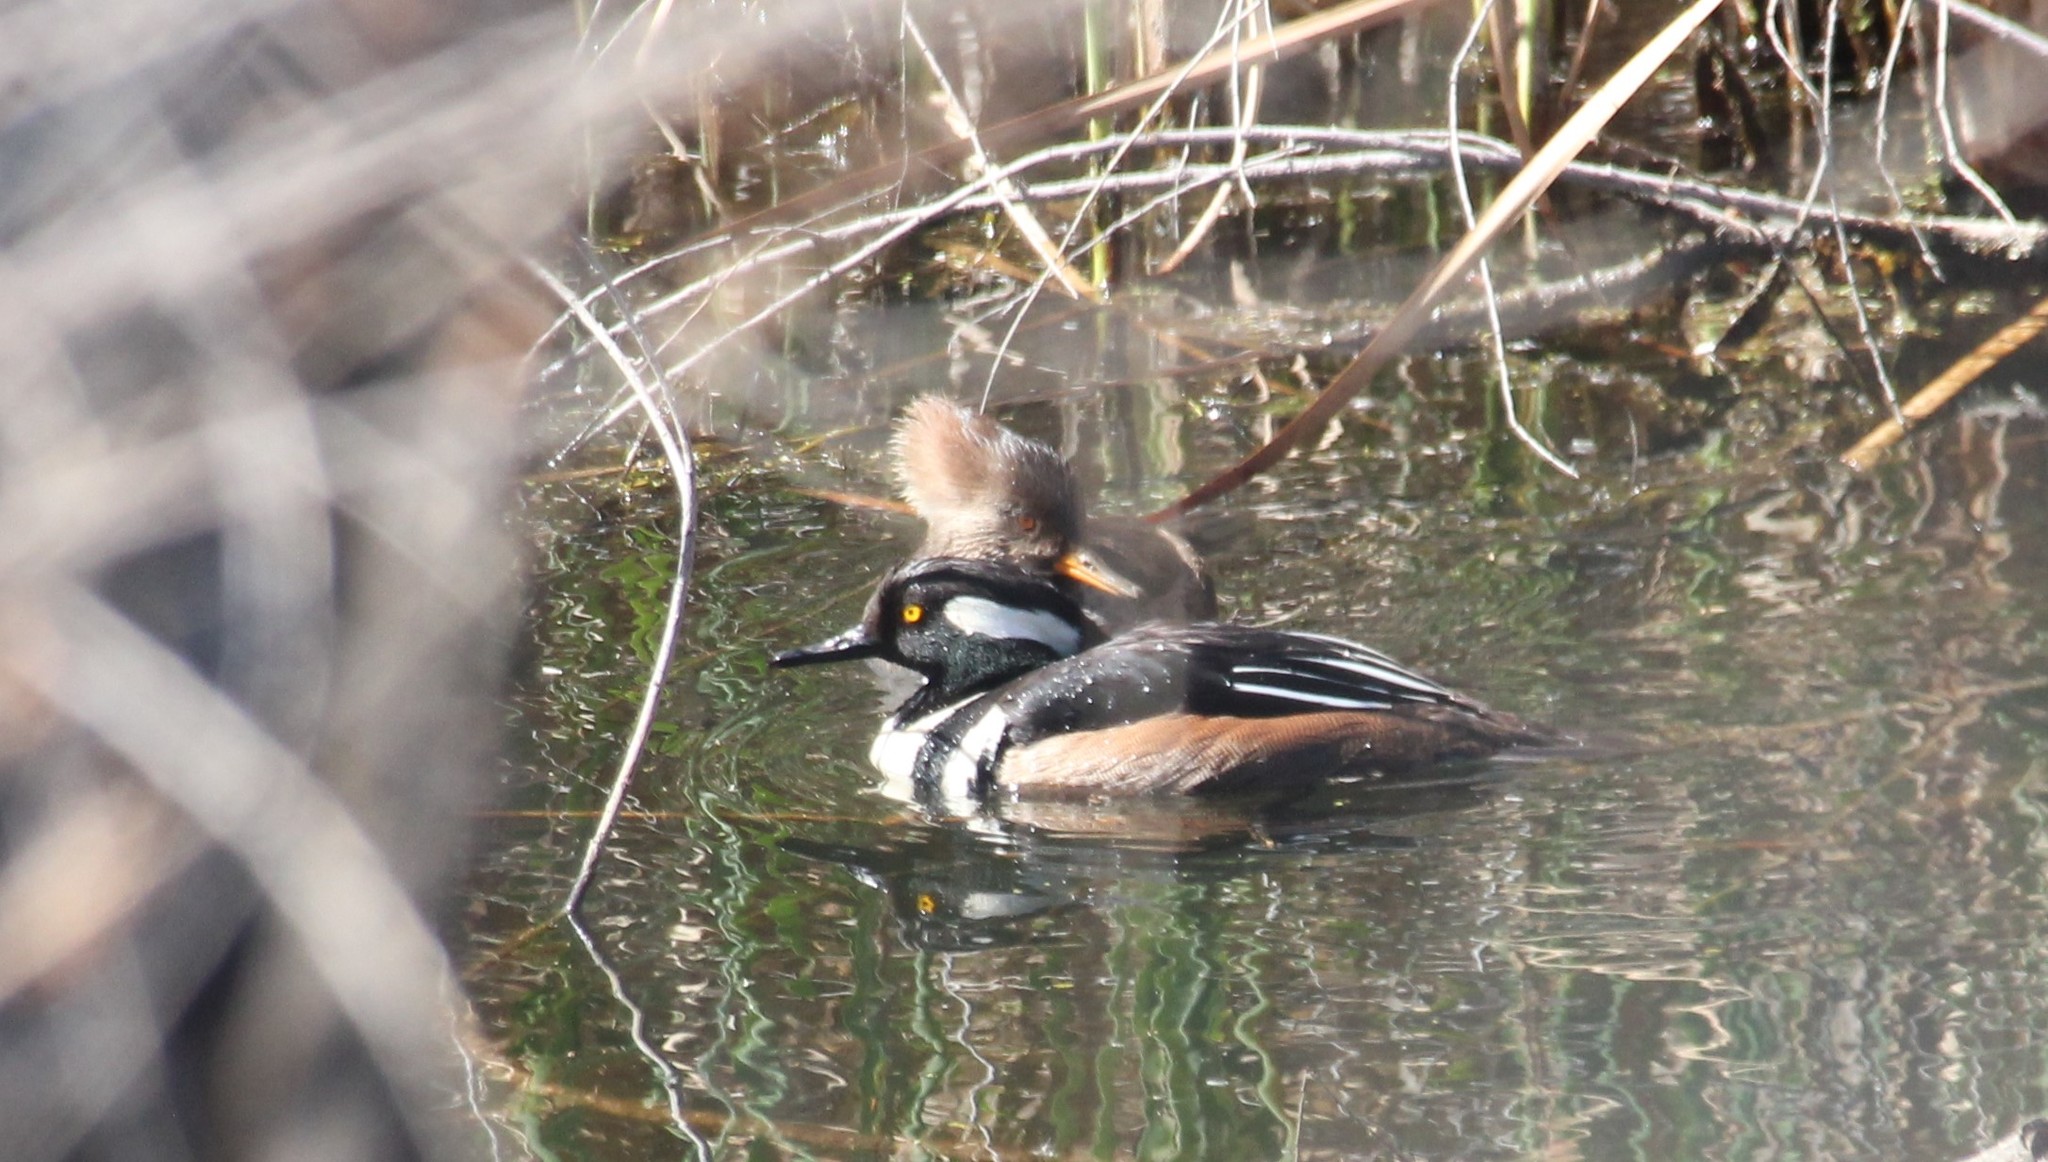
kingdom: Animalia
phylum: Chordata
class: Aves
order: Anseriformes
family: Anatidae
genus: Lophodytes
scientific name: Lophodytes cucullatus
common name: Hooded merganser
